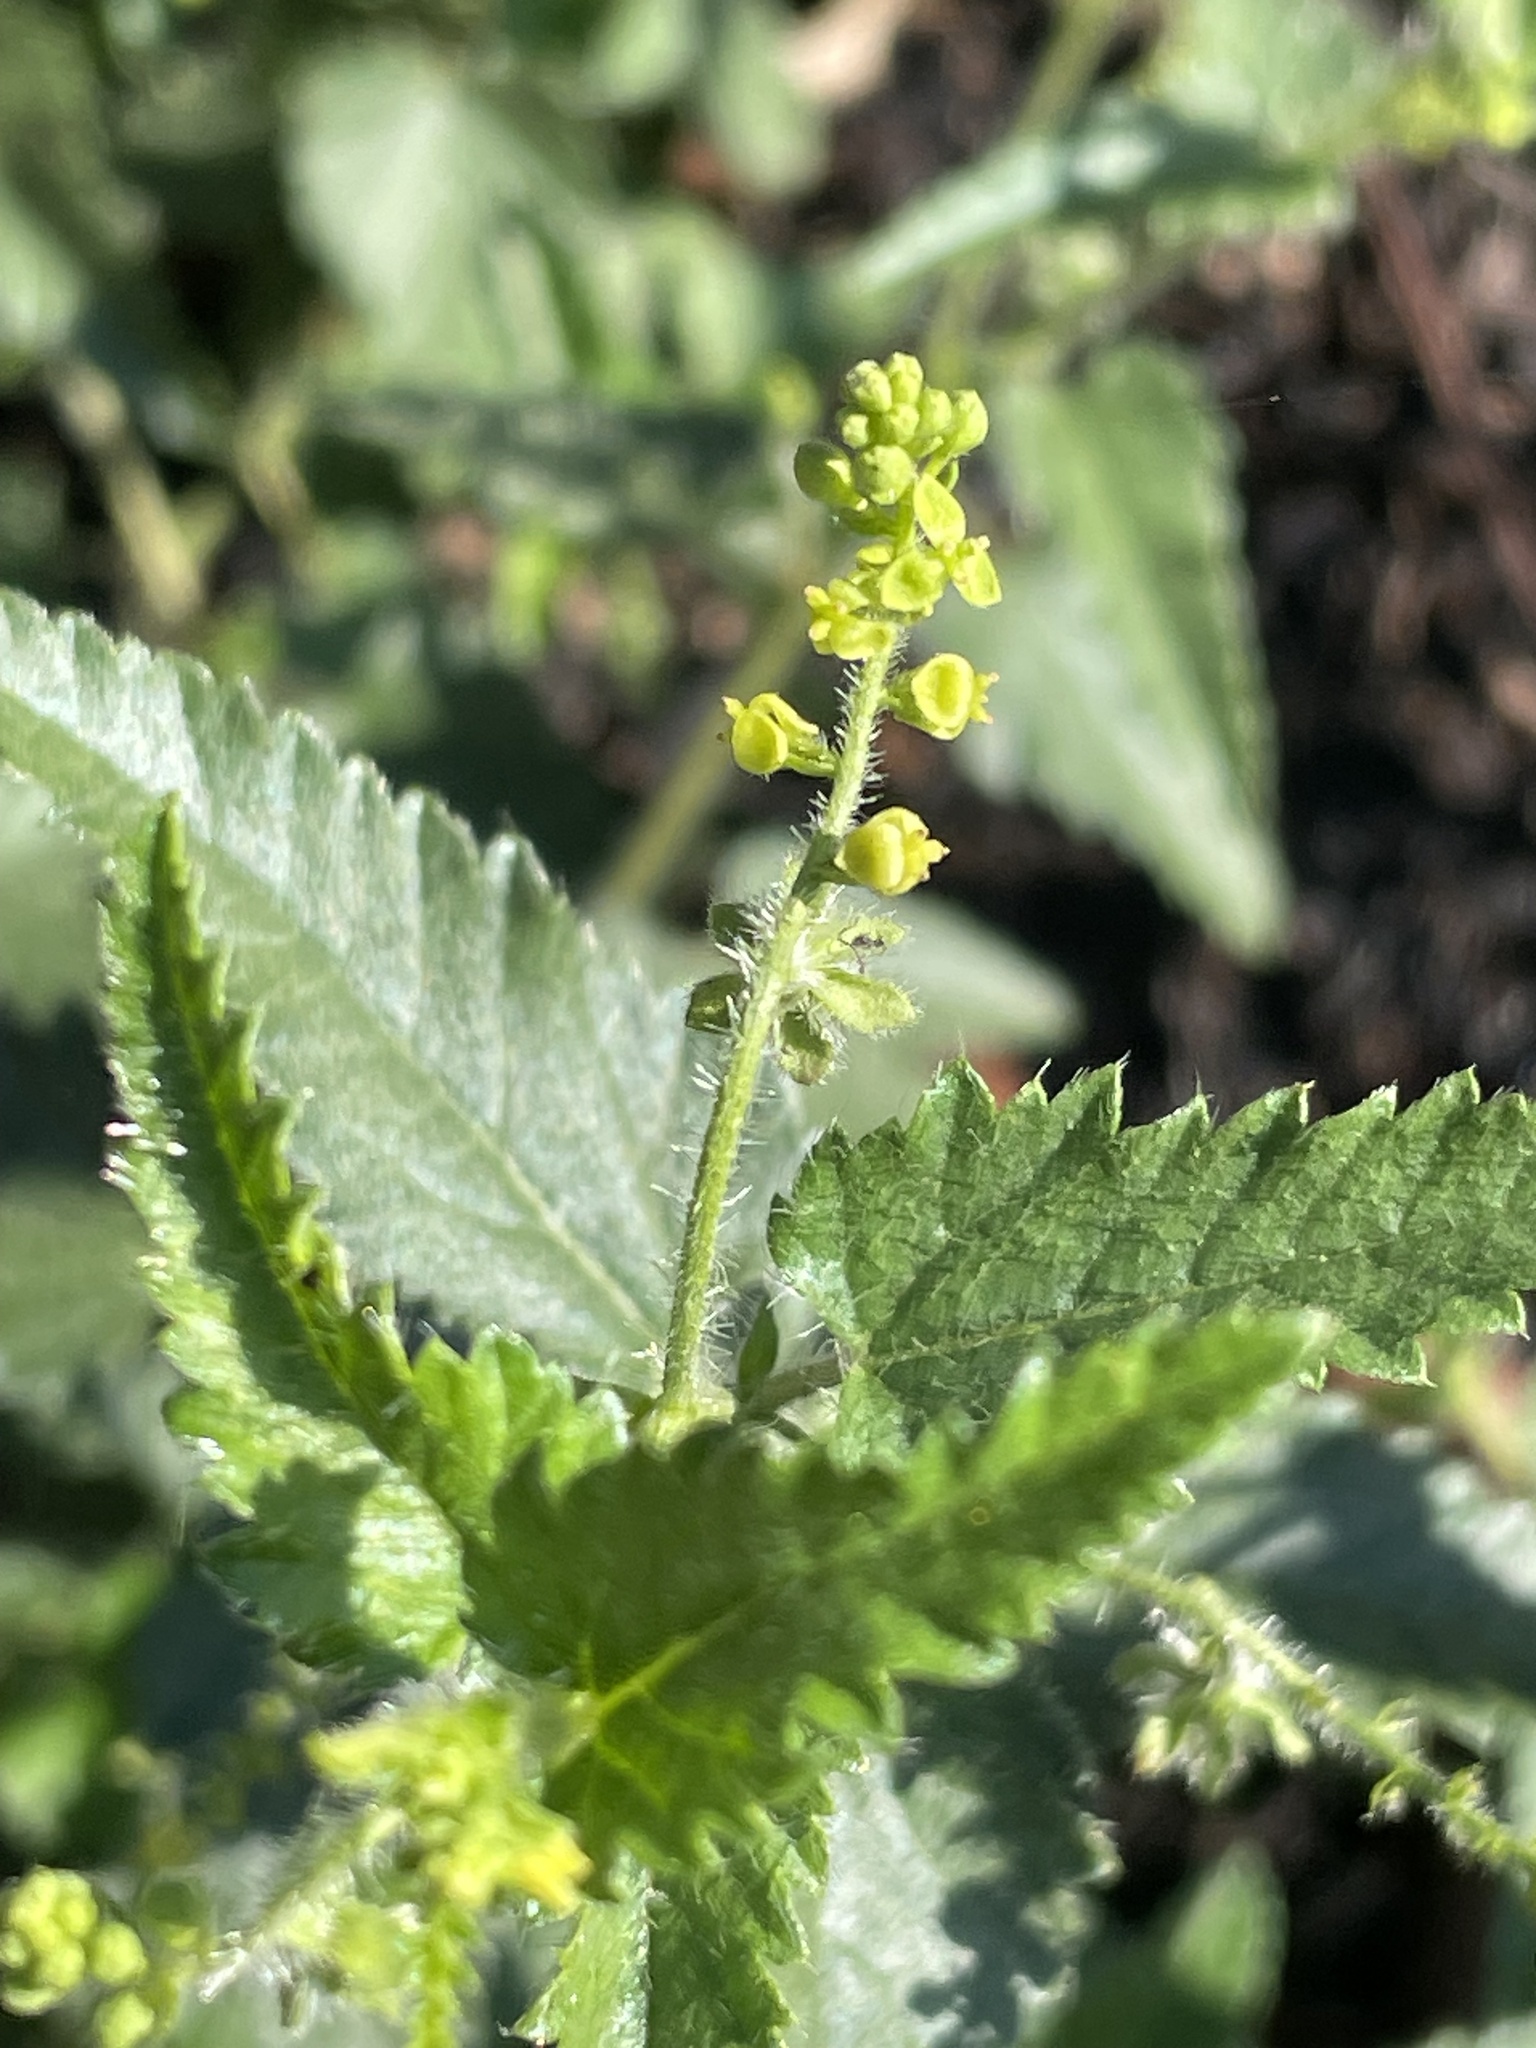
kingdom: Plantae
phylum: Tracheophyta
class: Magnoliopsida
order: Malpighiales
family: Euphorbiaceae
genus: Tragia
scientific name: Tragia urticifolia
